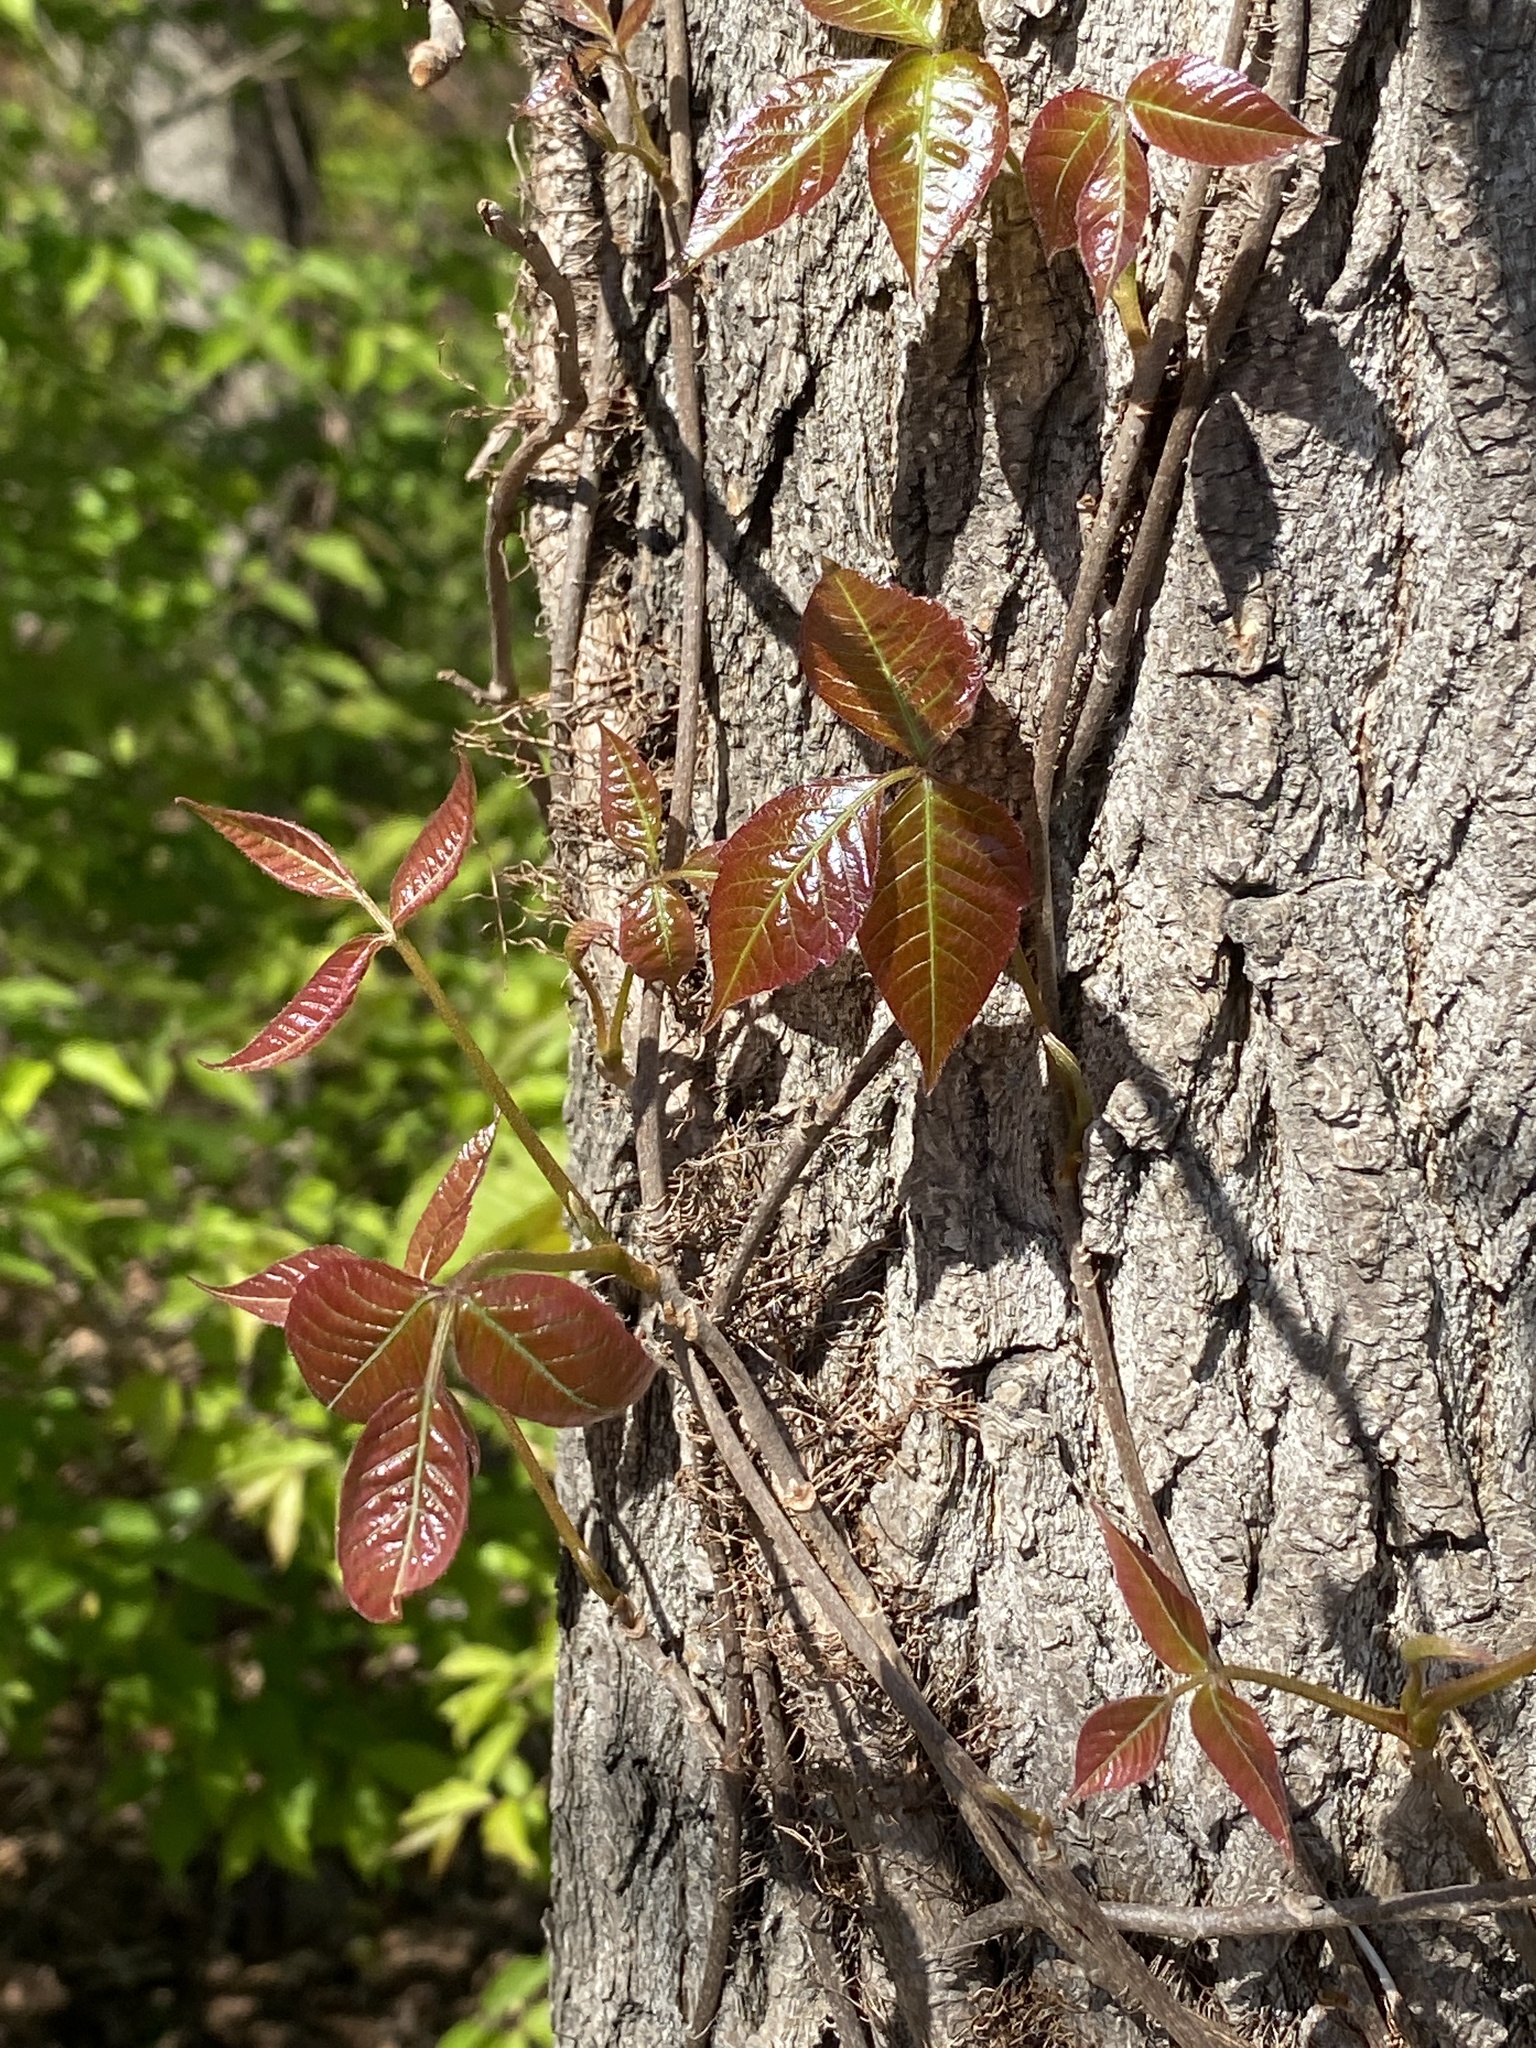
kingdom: Plantae
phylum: Tracheophyta
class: Magnoliopsida
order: Sapindales
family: Anacardiaceae
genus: Toxicodendron
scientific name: Toxicodendron radicans
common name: Poison ivy
